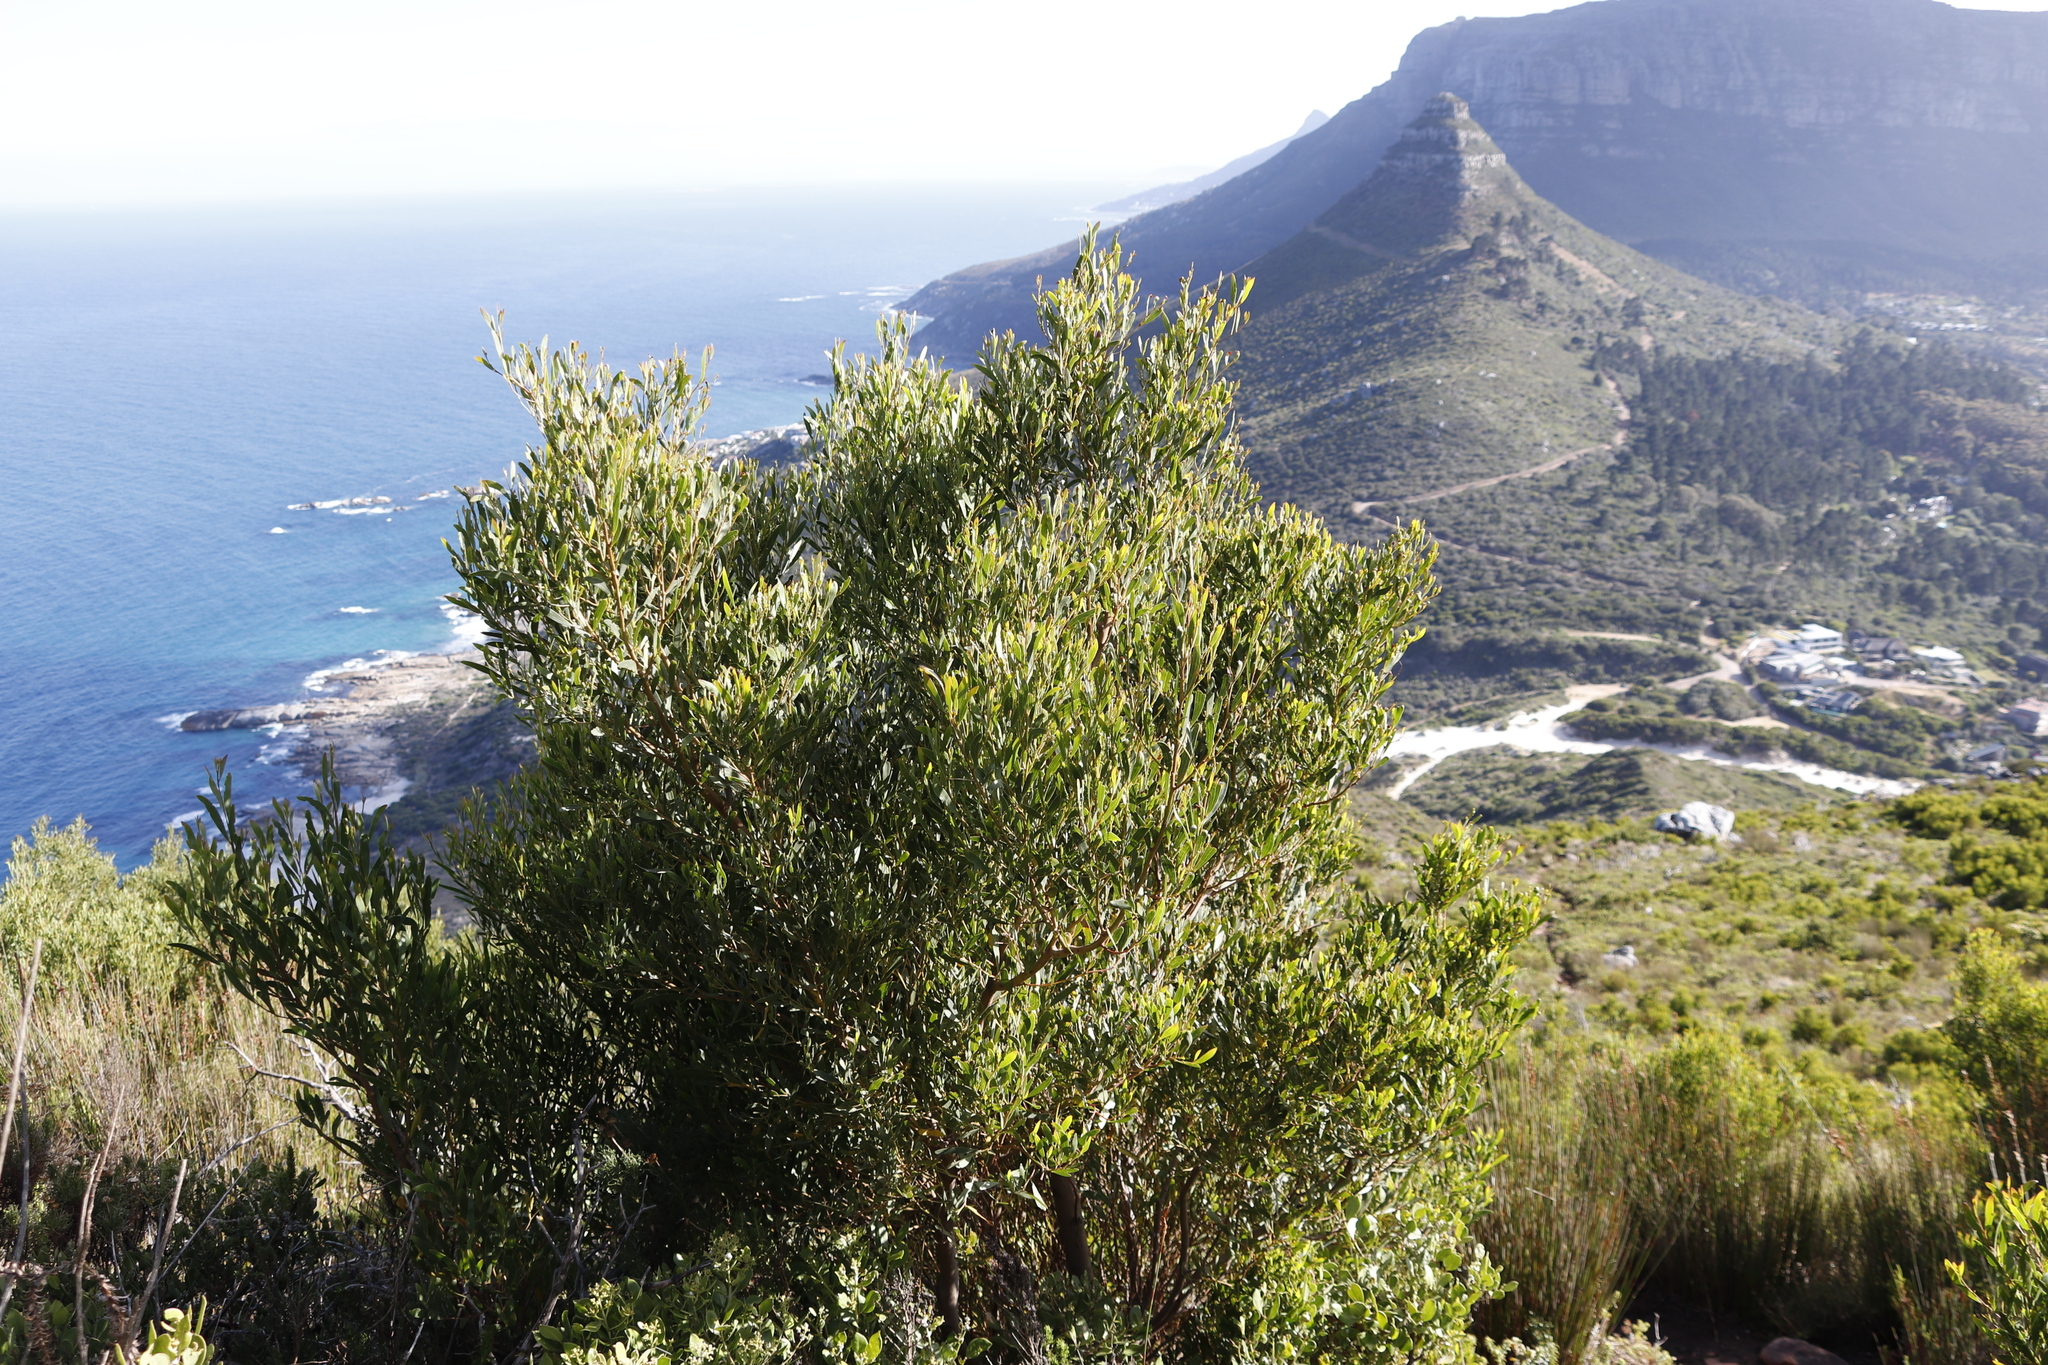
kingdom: Plantae
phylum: Tracheophyta
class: Magnoliopsida
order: Fabales
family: Fabaceae
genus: Acacia
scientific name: Acacia cyclops
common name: Coastal wattle
